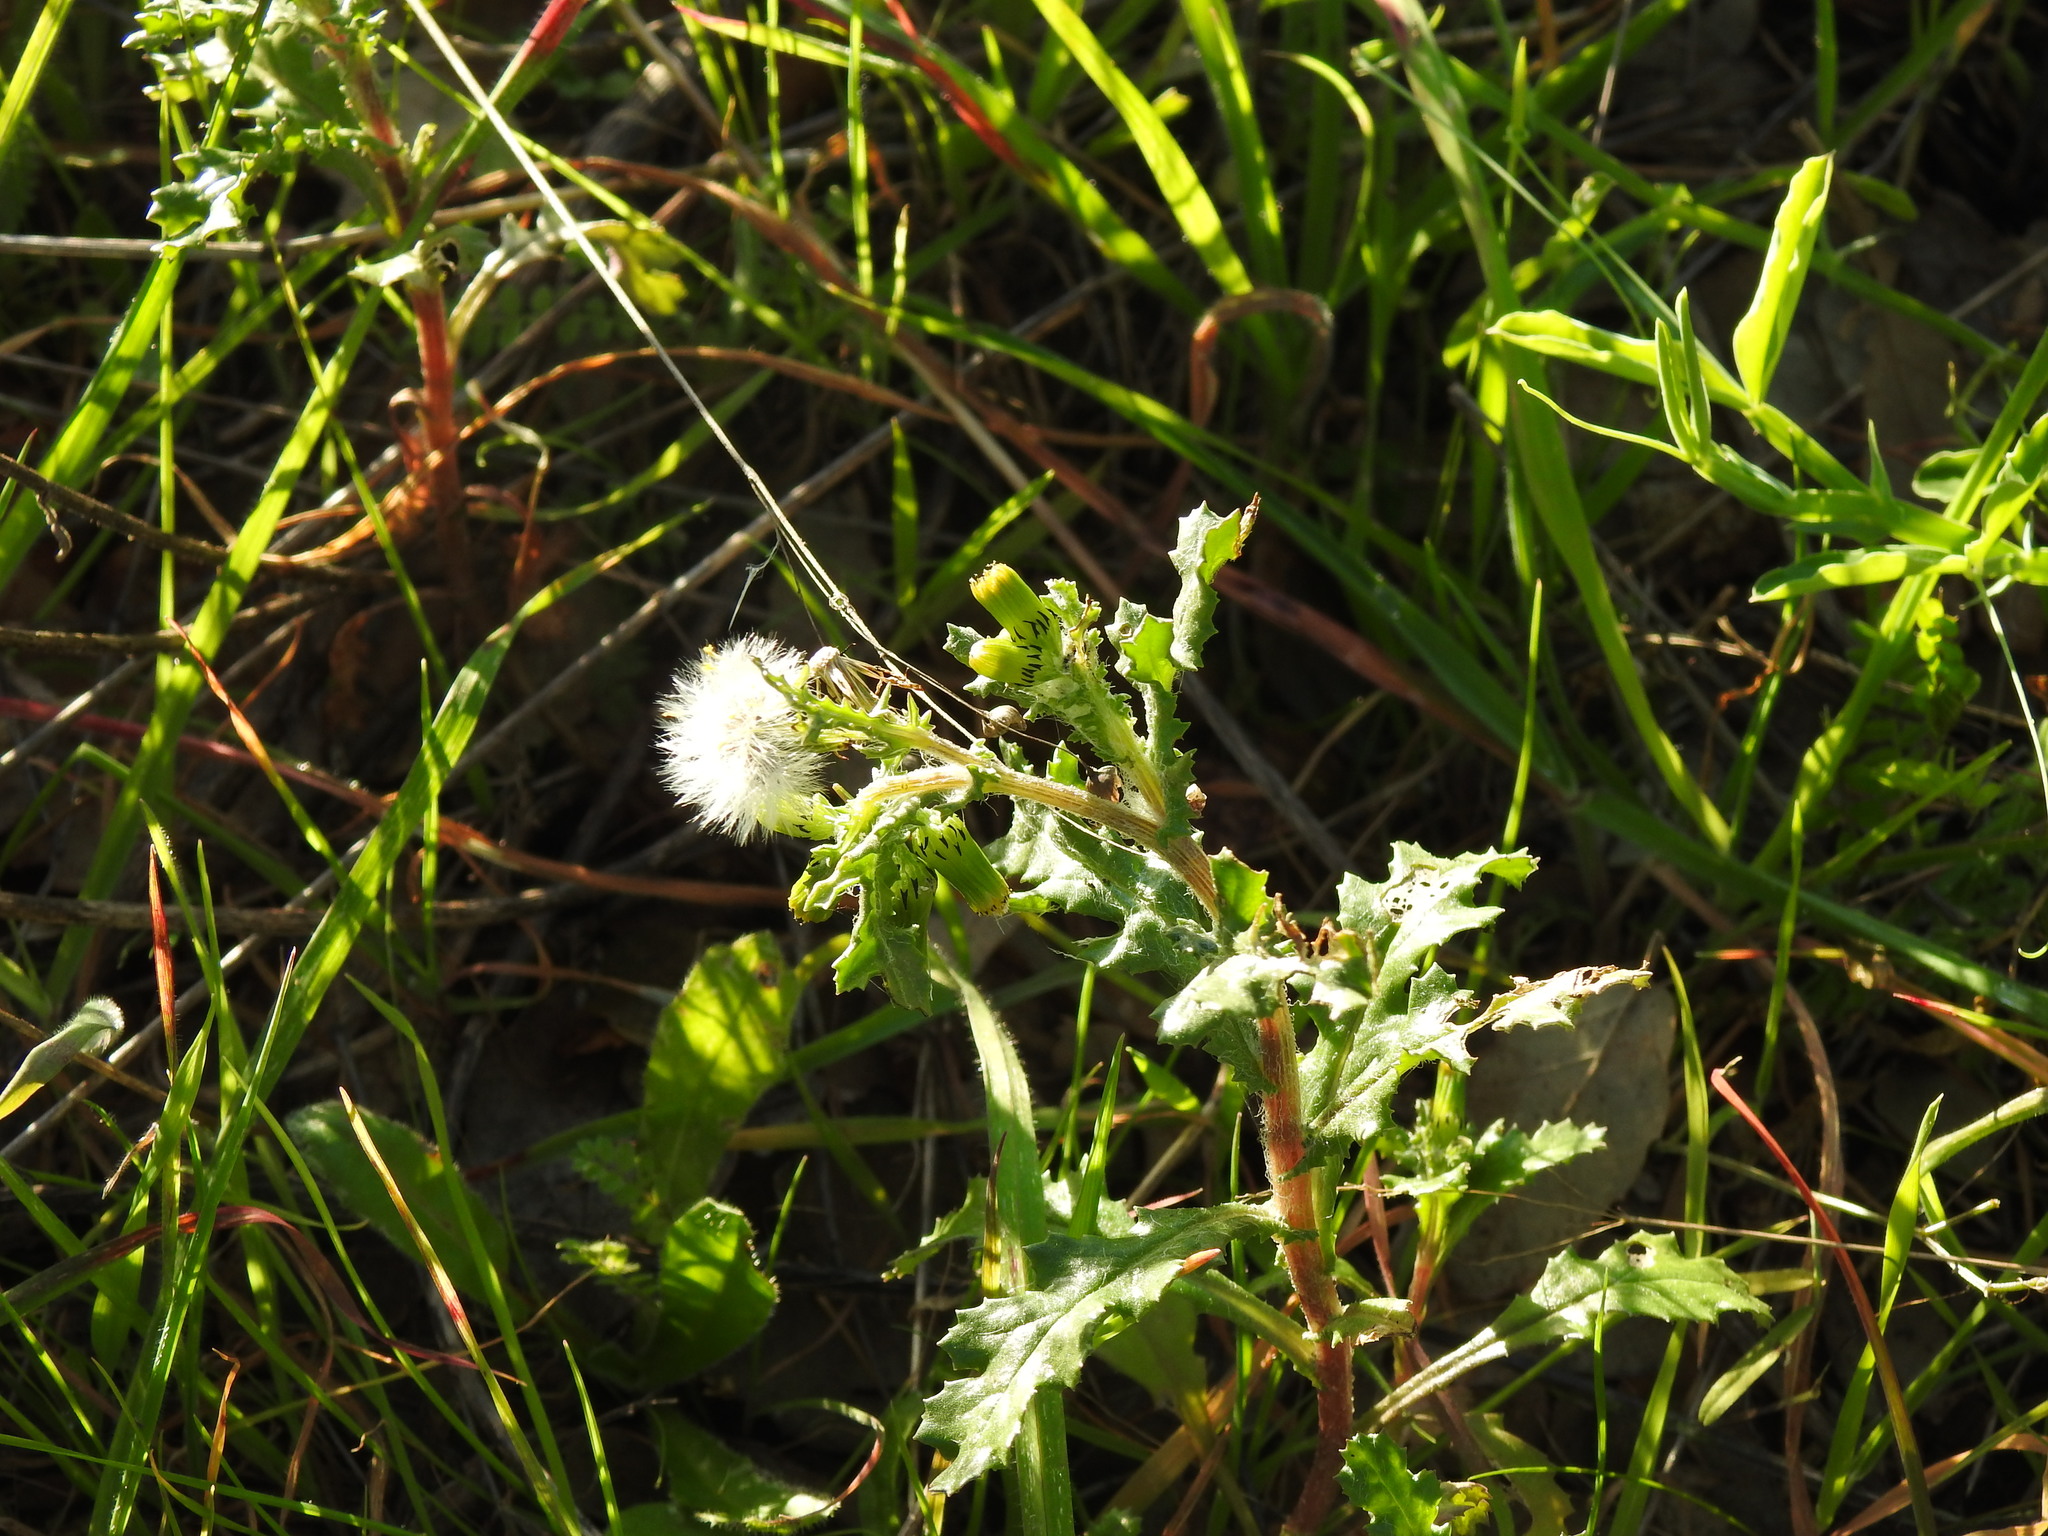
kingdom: Plantae
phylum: Tracheophyta
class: Magnoliopsida
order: Asterales
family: Asteraceae
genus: Senecio
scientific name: Senecio vulgaris
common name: Old-man-in-the-spring
